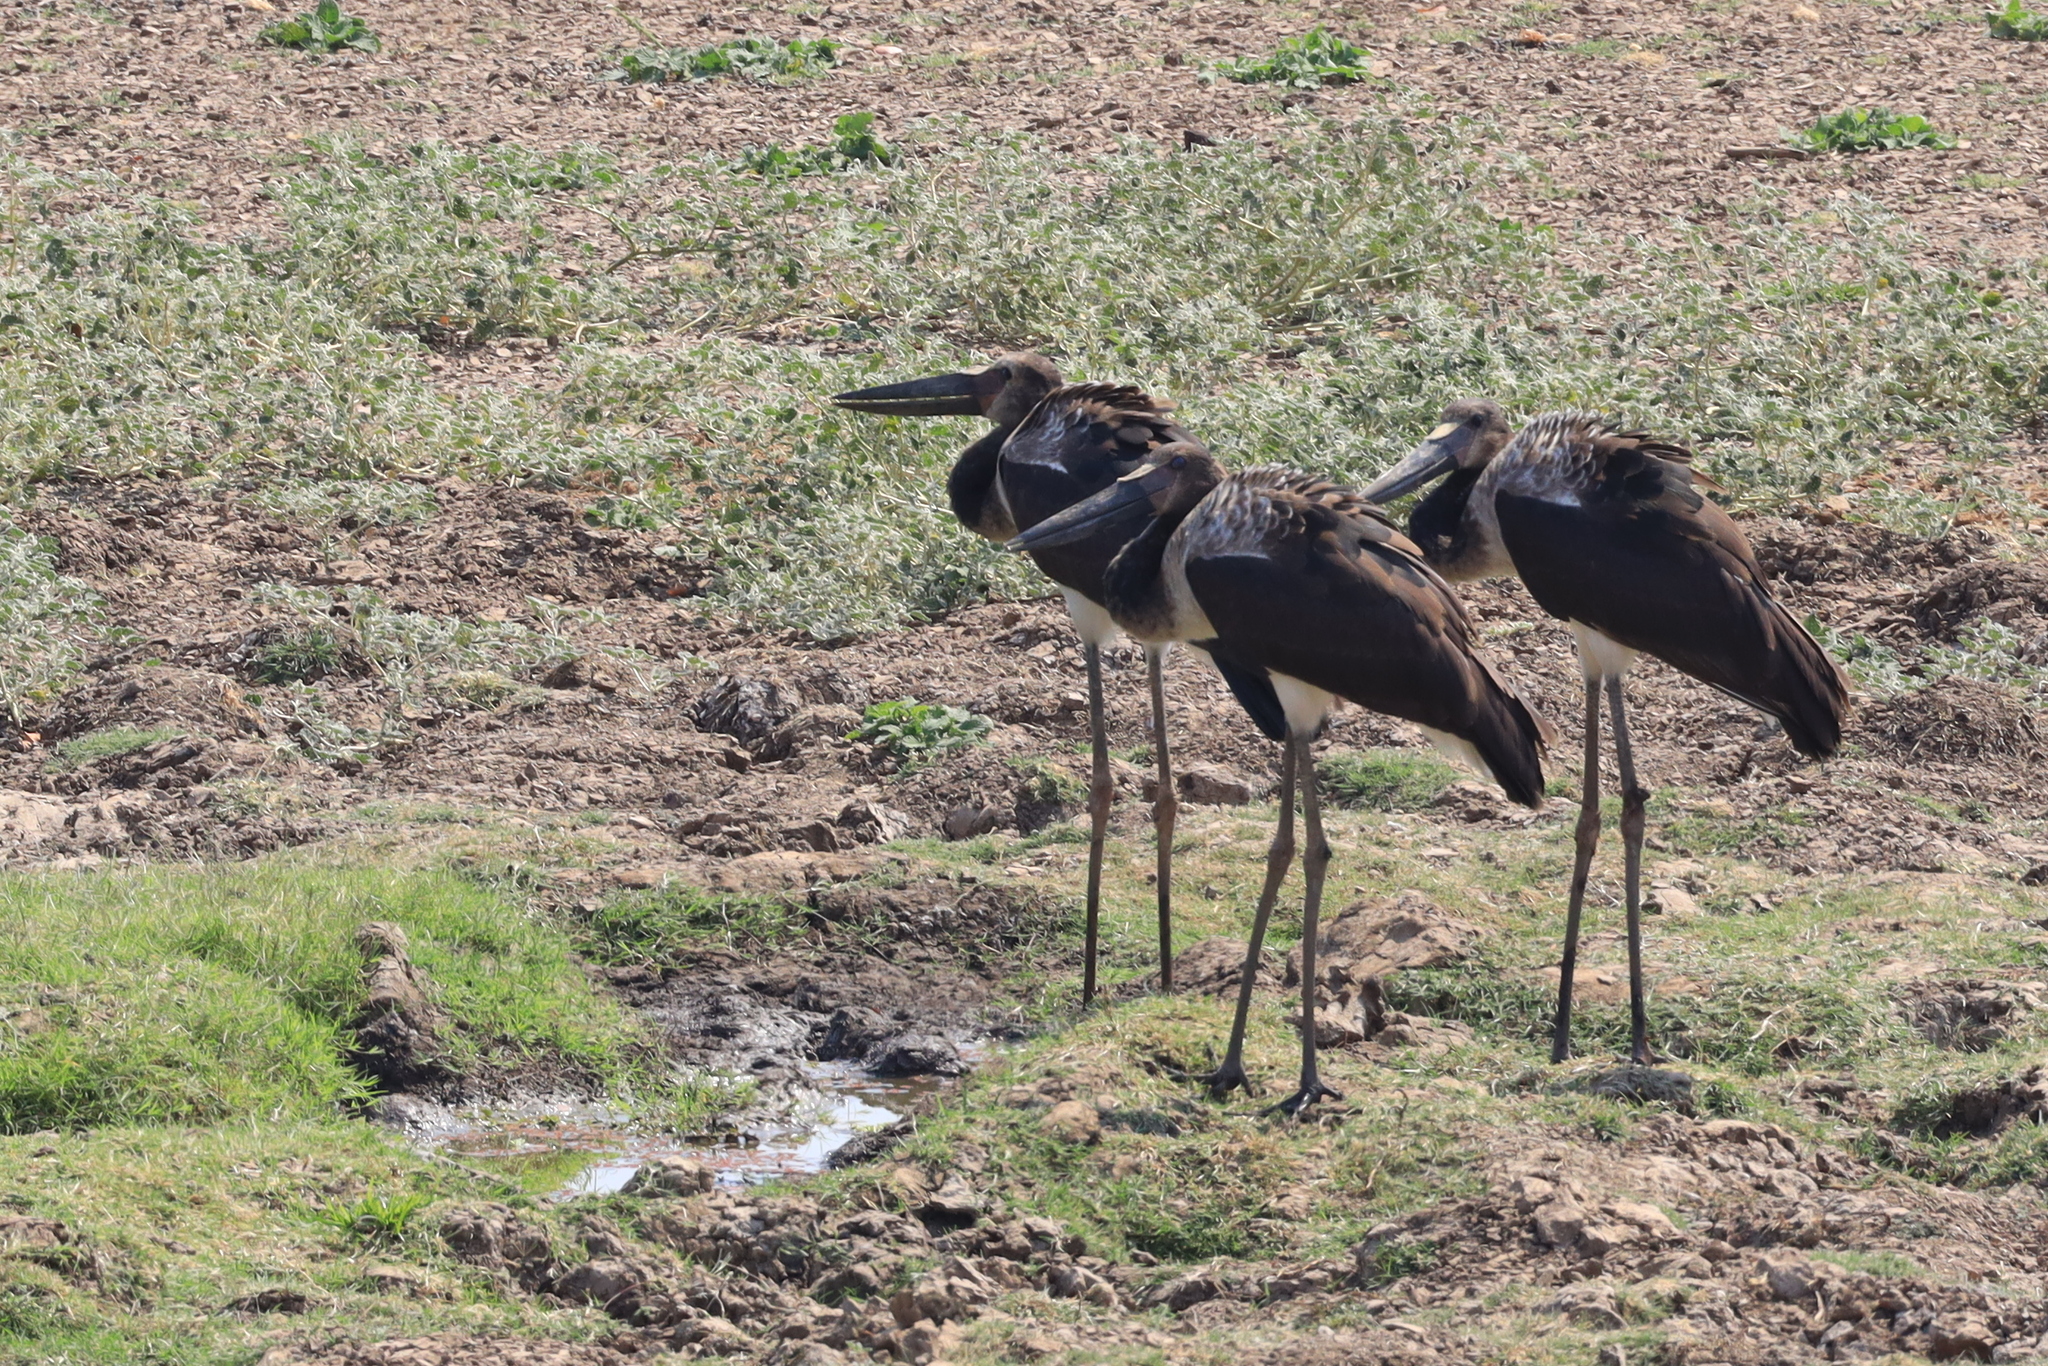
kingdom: Animalia
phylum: Chordata
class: Aves
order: Ciconiiformes
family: Ciconiidae
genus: Ephippiorhynchus
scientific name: Ephippiorhynchus senegalensis
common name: Saddle-billed stork
